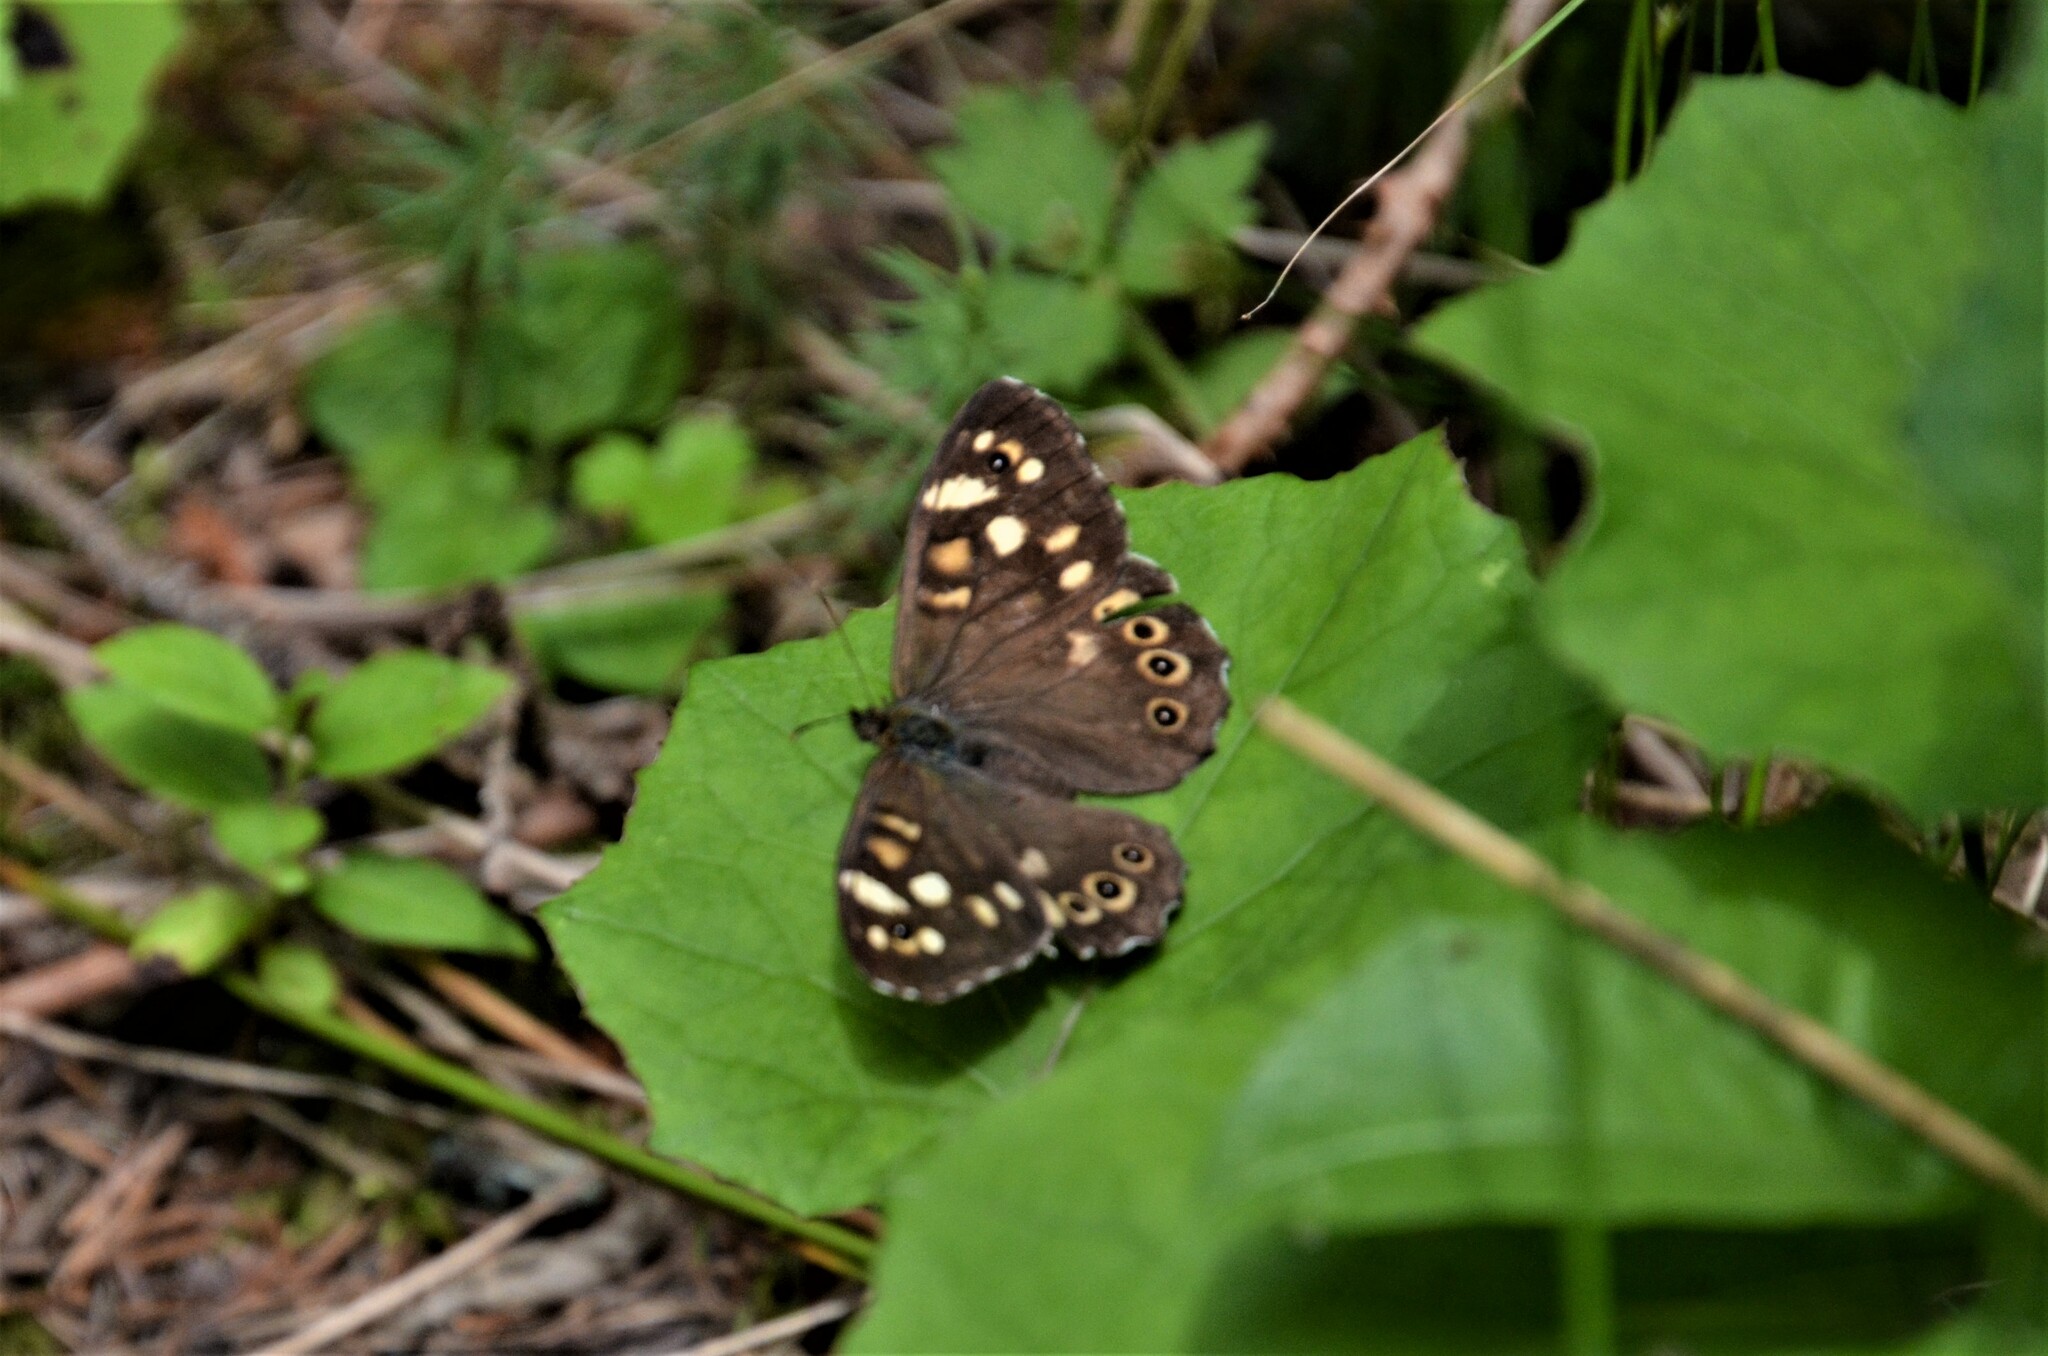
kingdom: Animalia
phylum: Arthropoda
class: Insecta
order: Lepidoptera
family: Nymphalidae
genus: Pararge
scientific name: Pararge aegeria
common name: Speckled wood
